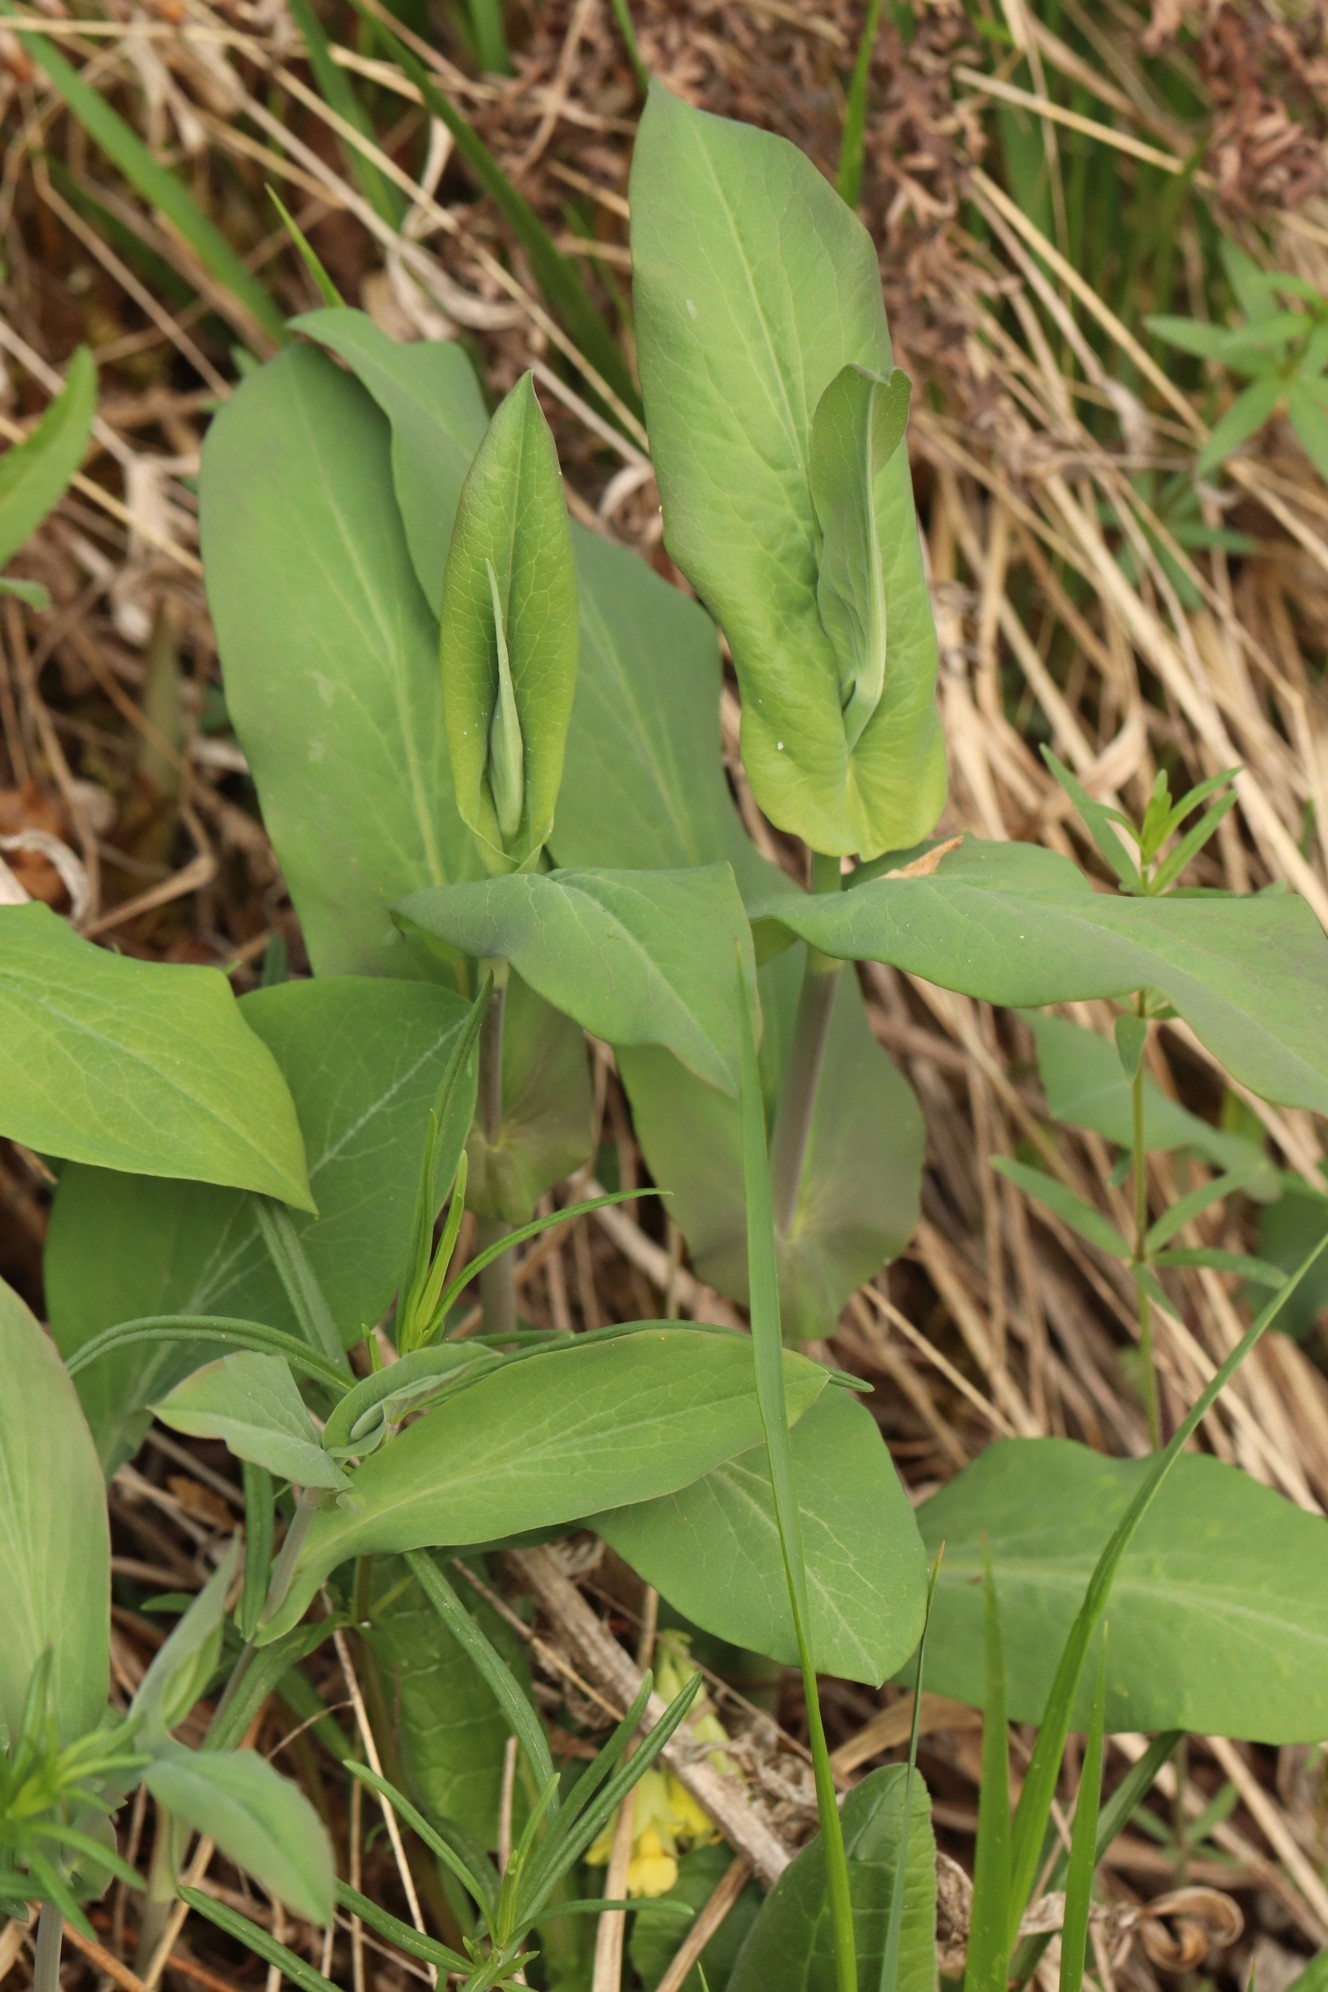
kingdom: Plantae
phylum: Tracheophyta
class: Magnoliopsida
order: Apiales
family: Apiaceae
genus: Bupleurum
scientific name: Bupleurum aureum
